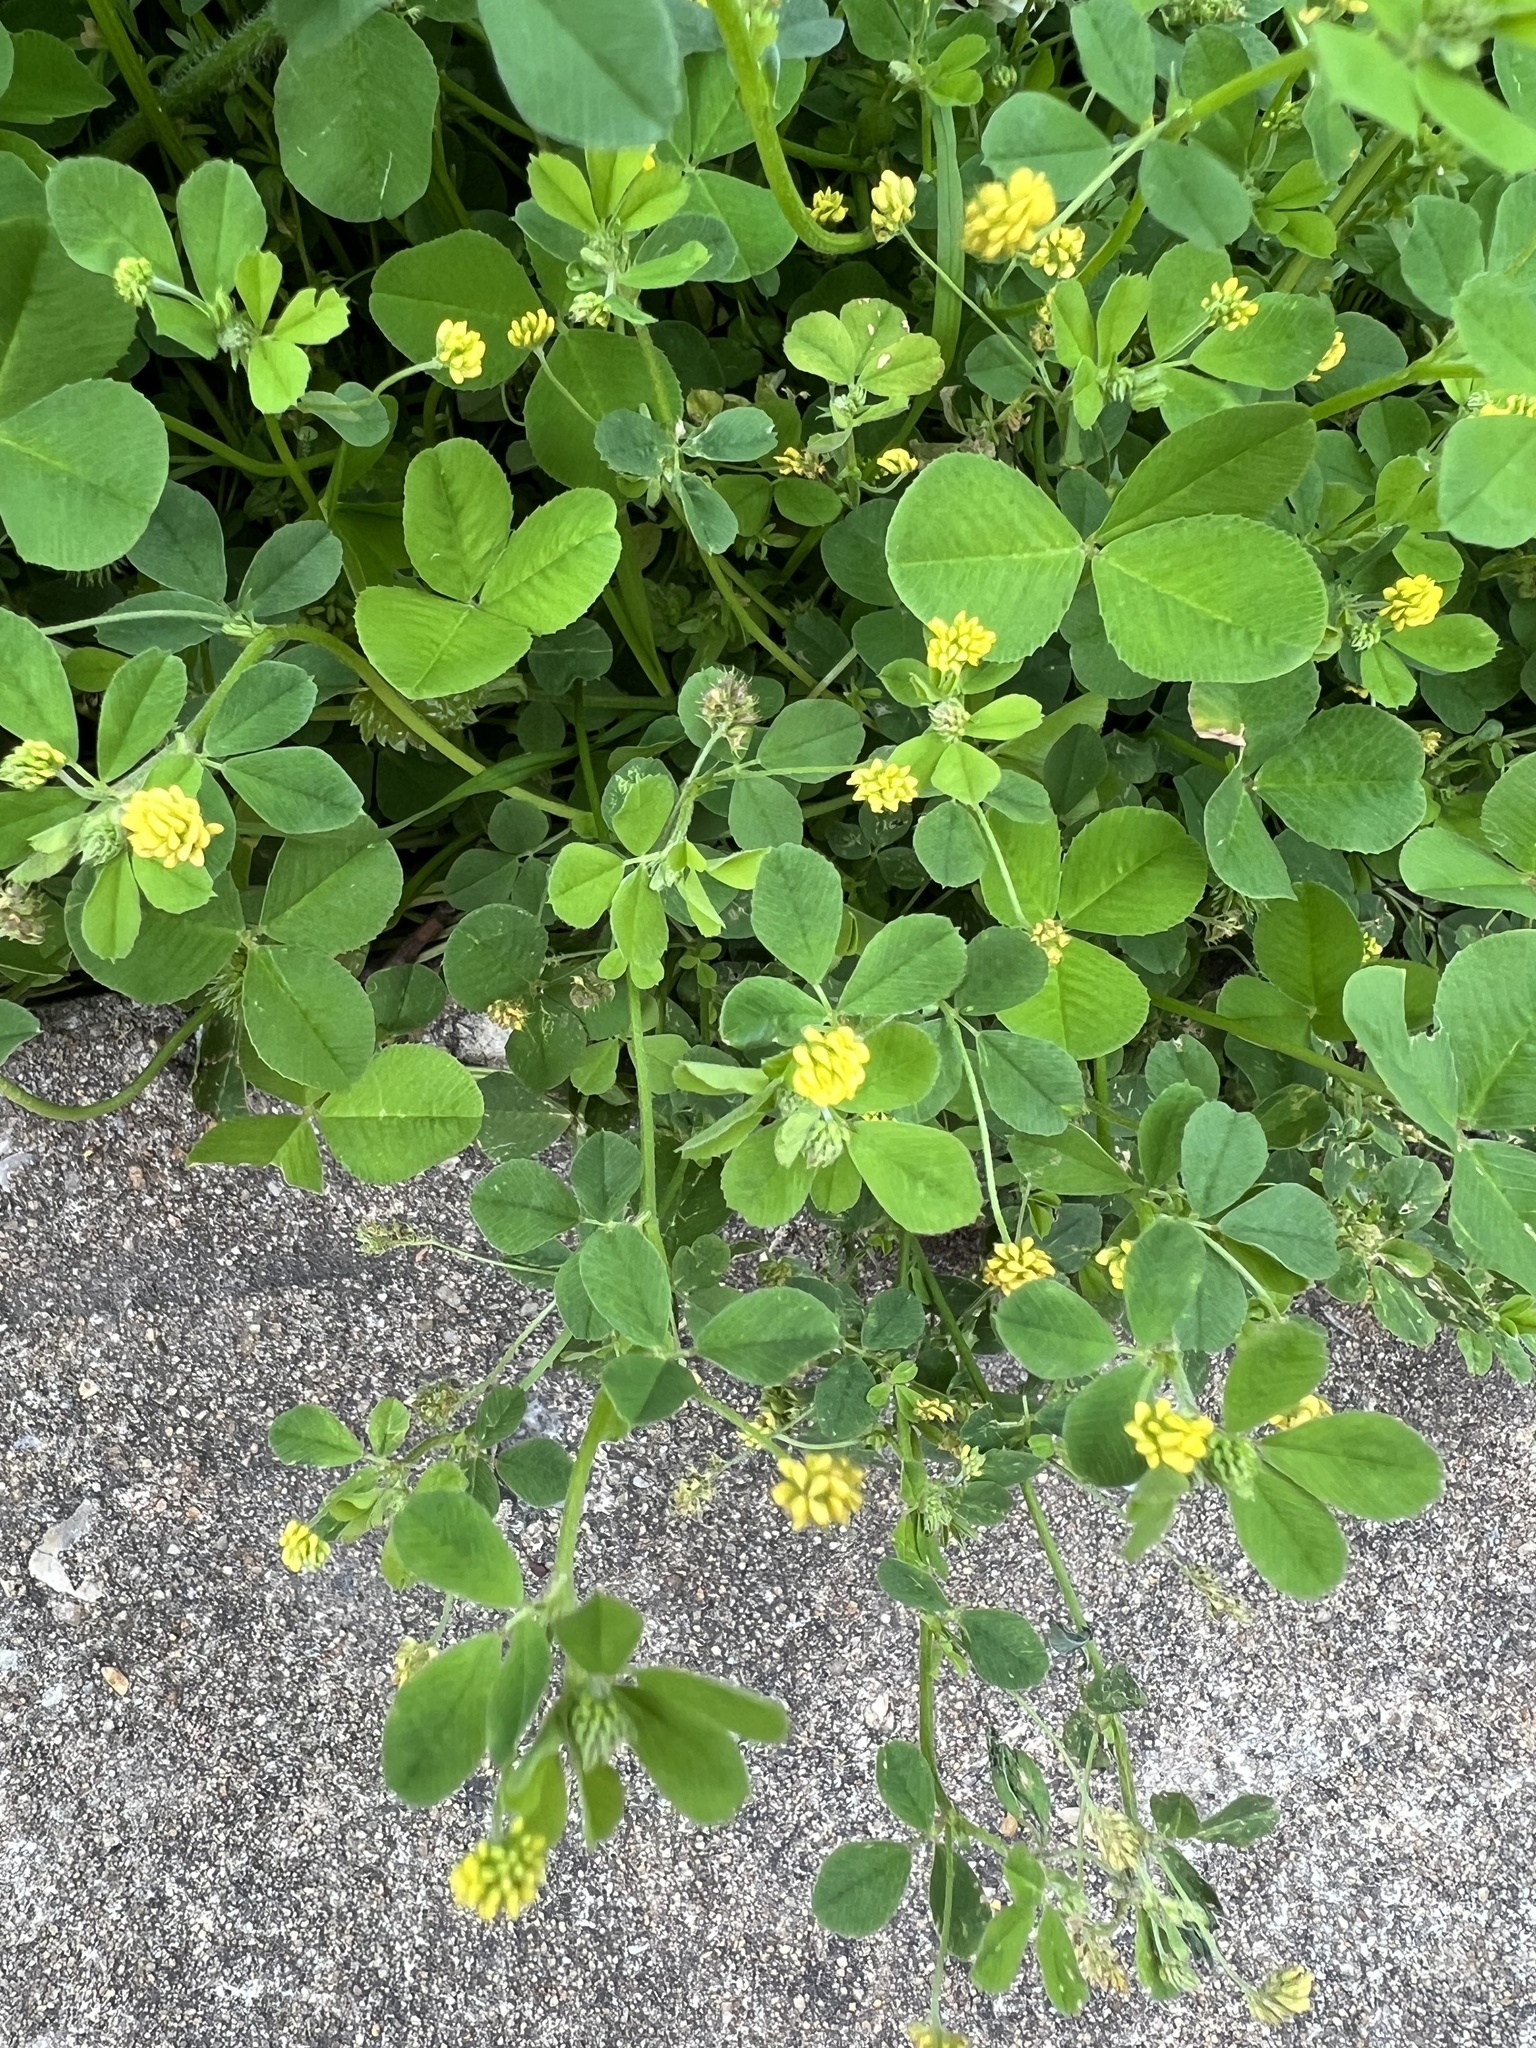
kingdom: Plantae
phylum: Tracheophyta
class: Magnoliopsida
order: Fabales
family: Fabaceae
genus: Medicago
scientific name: Medicago lupulina
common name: Black medick
